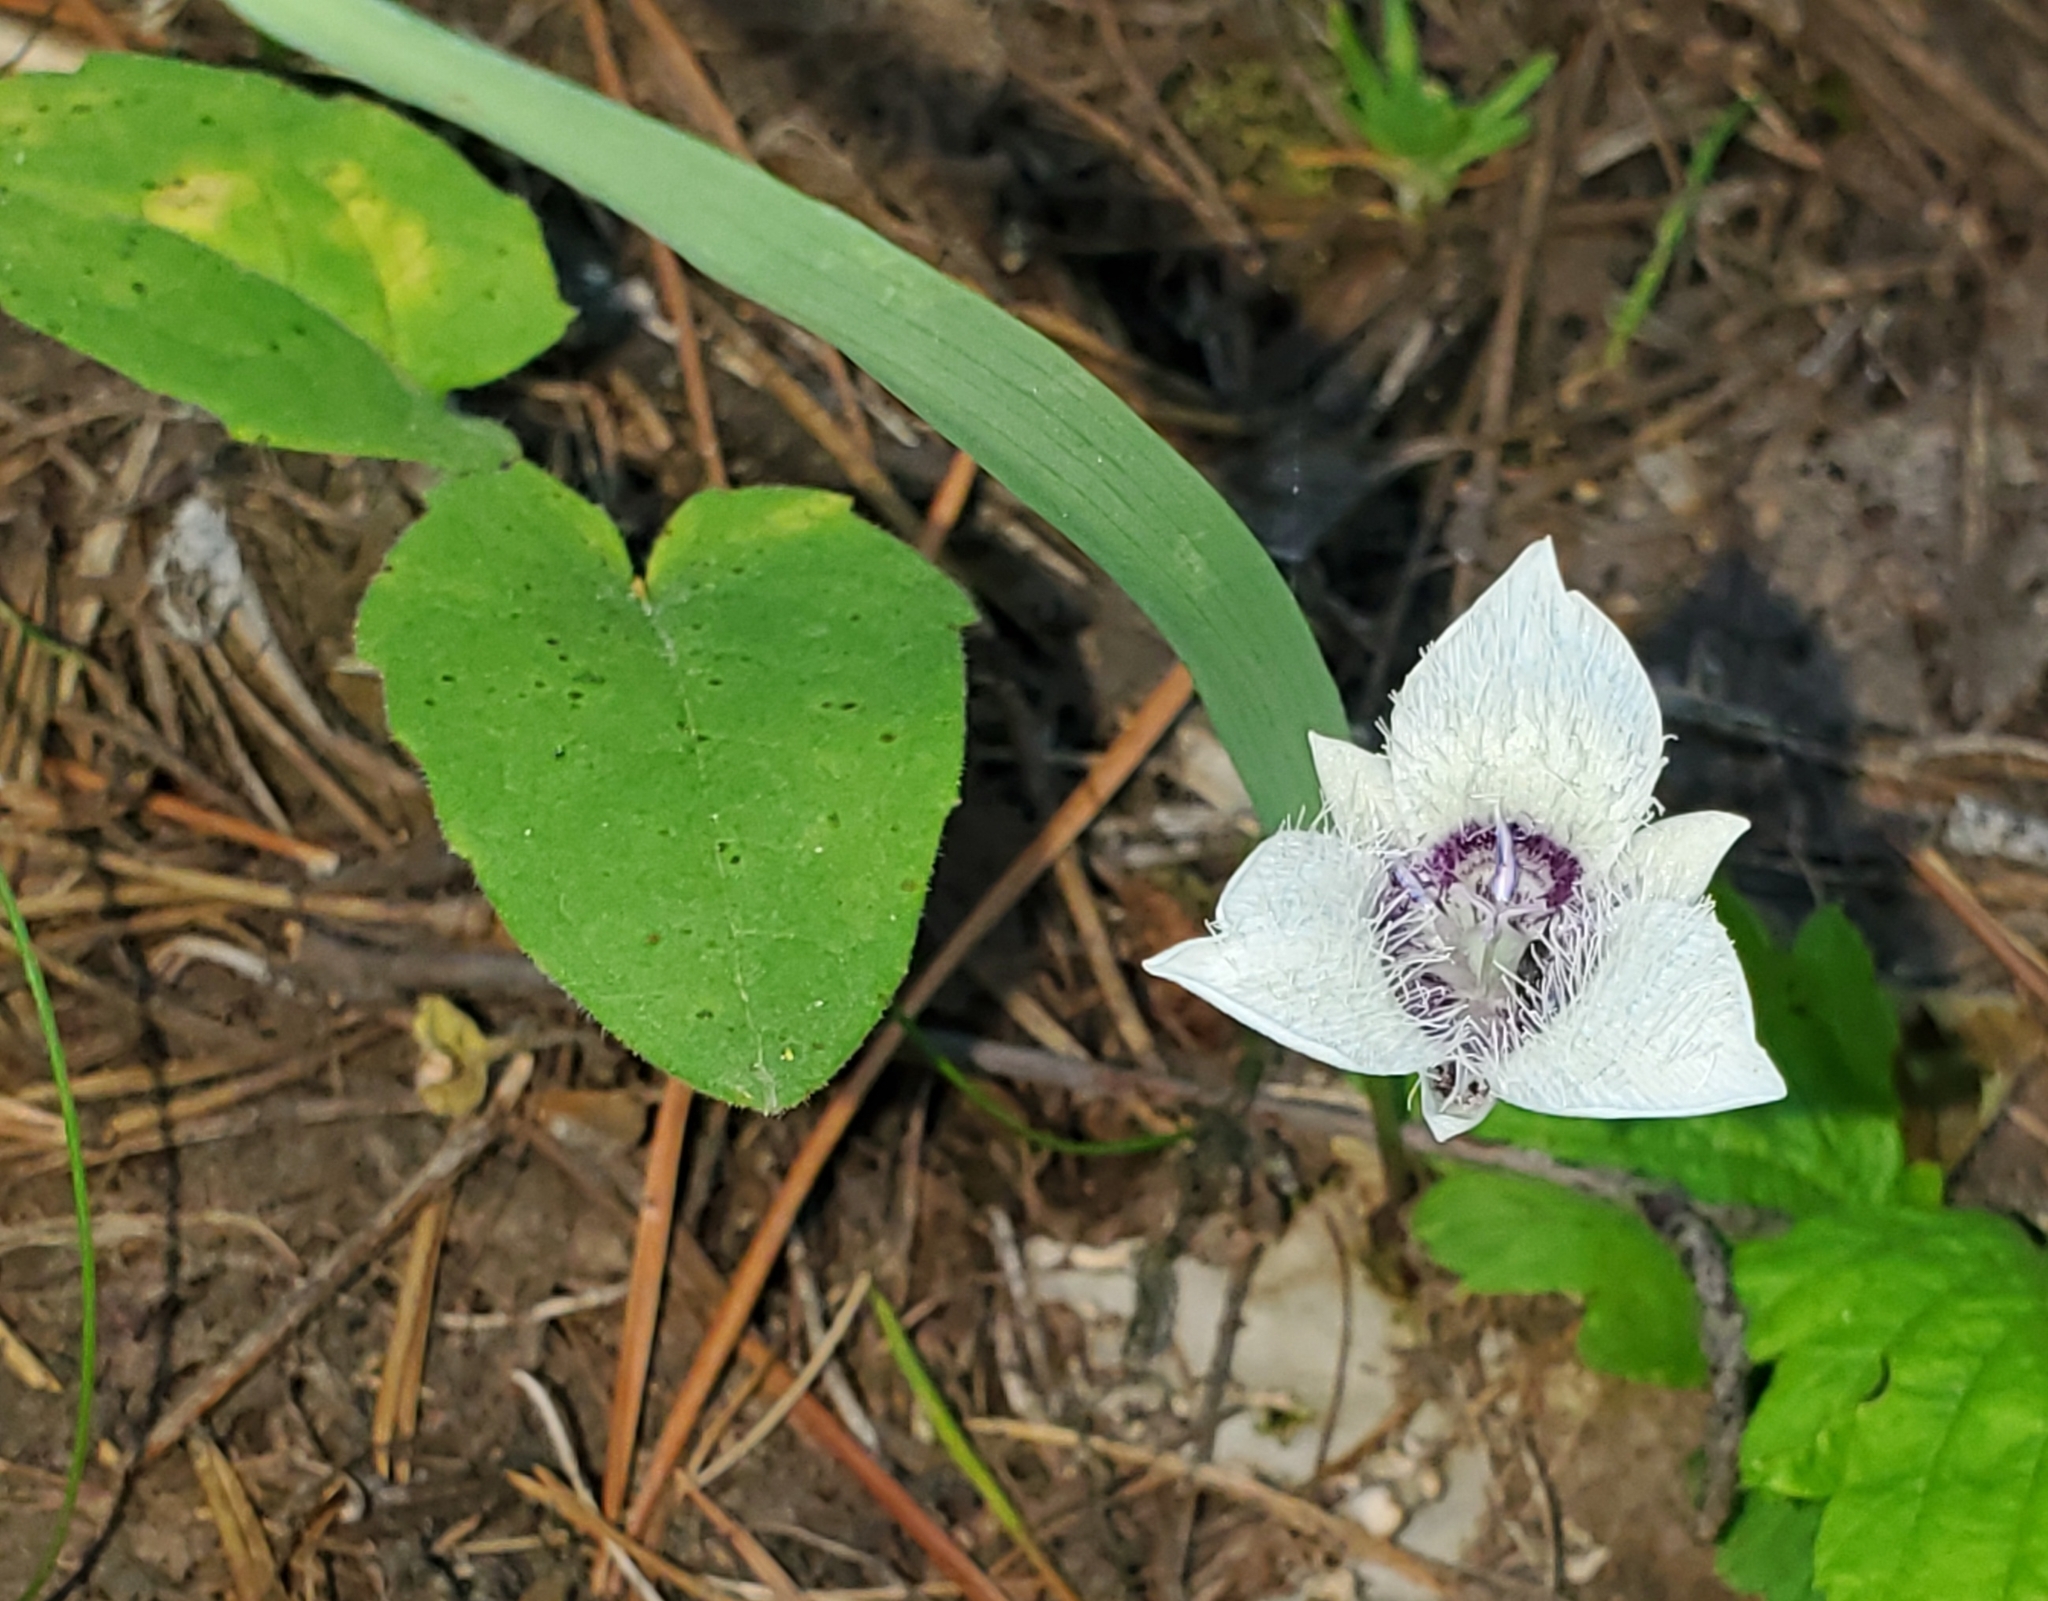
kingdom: Plantae
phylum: Tracheophyta
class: Liliopsida
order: Liliales
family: Liliaceae
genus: Calochortus
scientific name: Calochortus elegans
